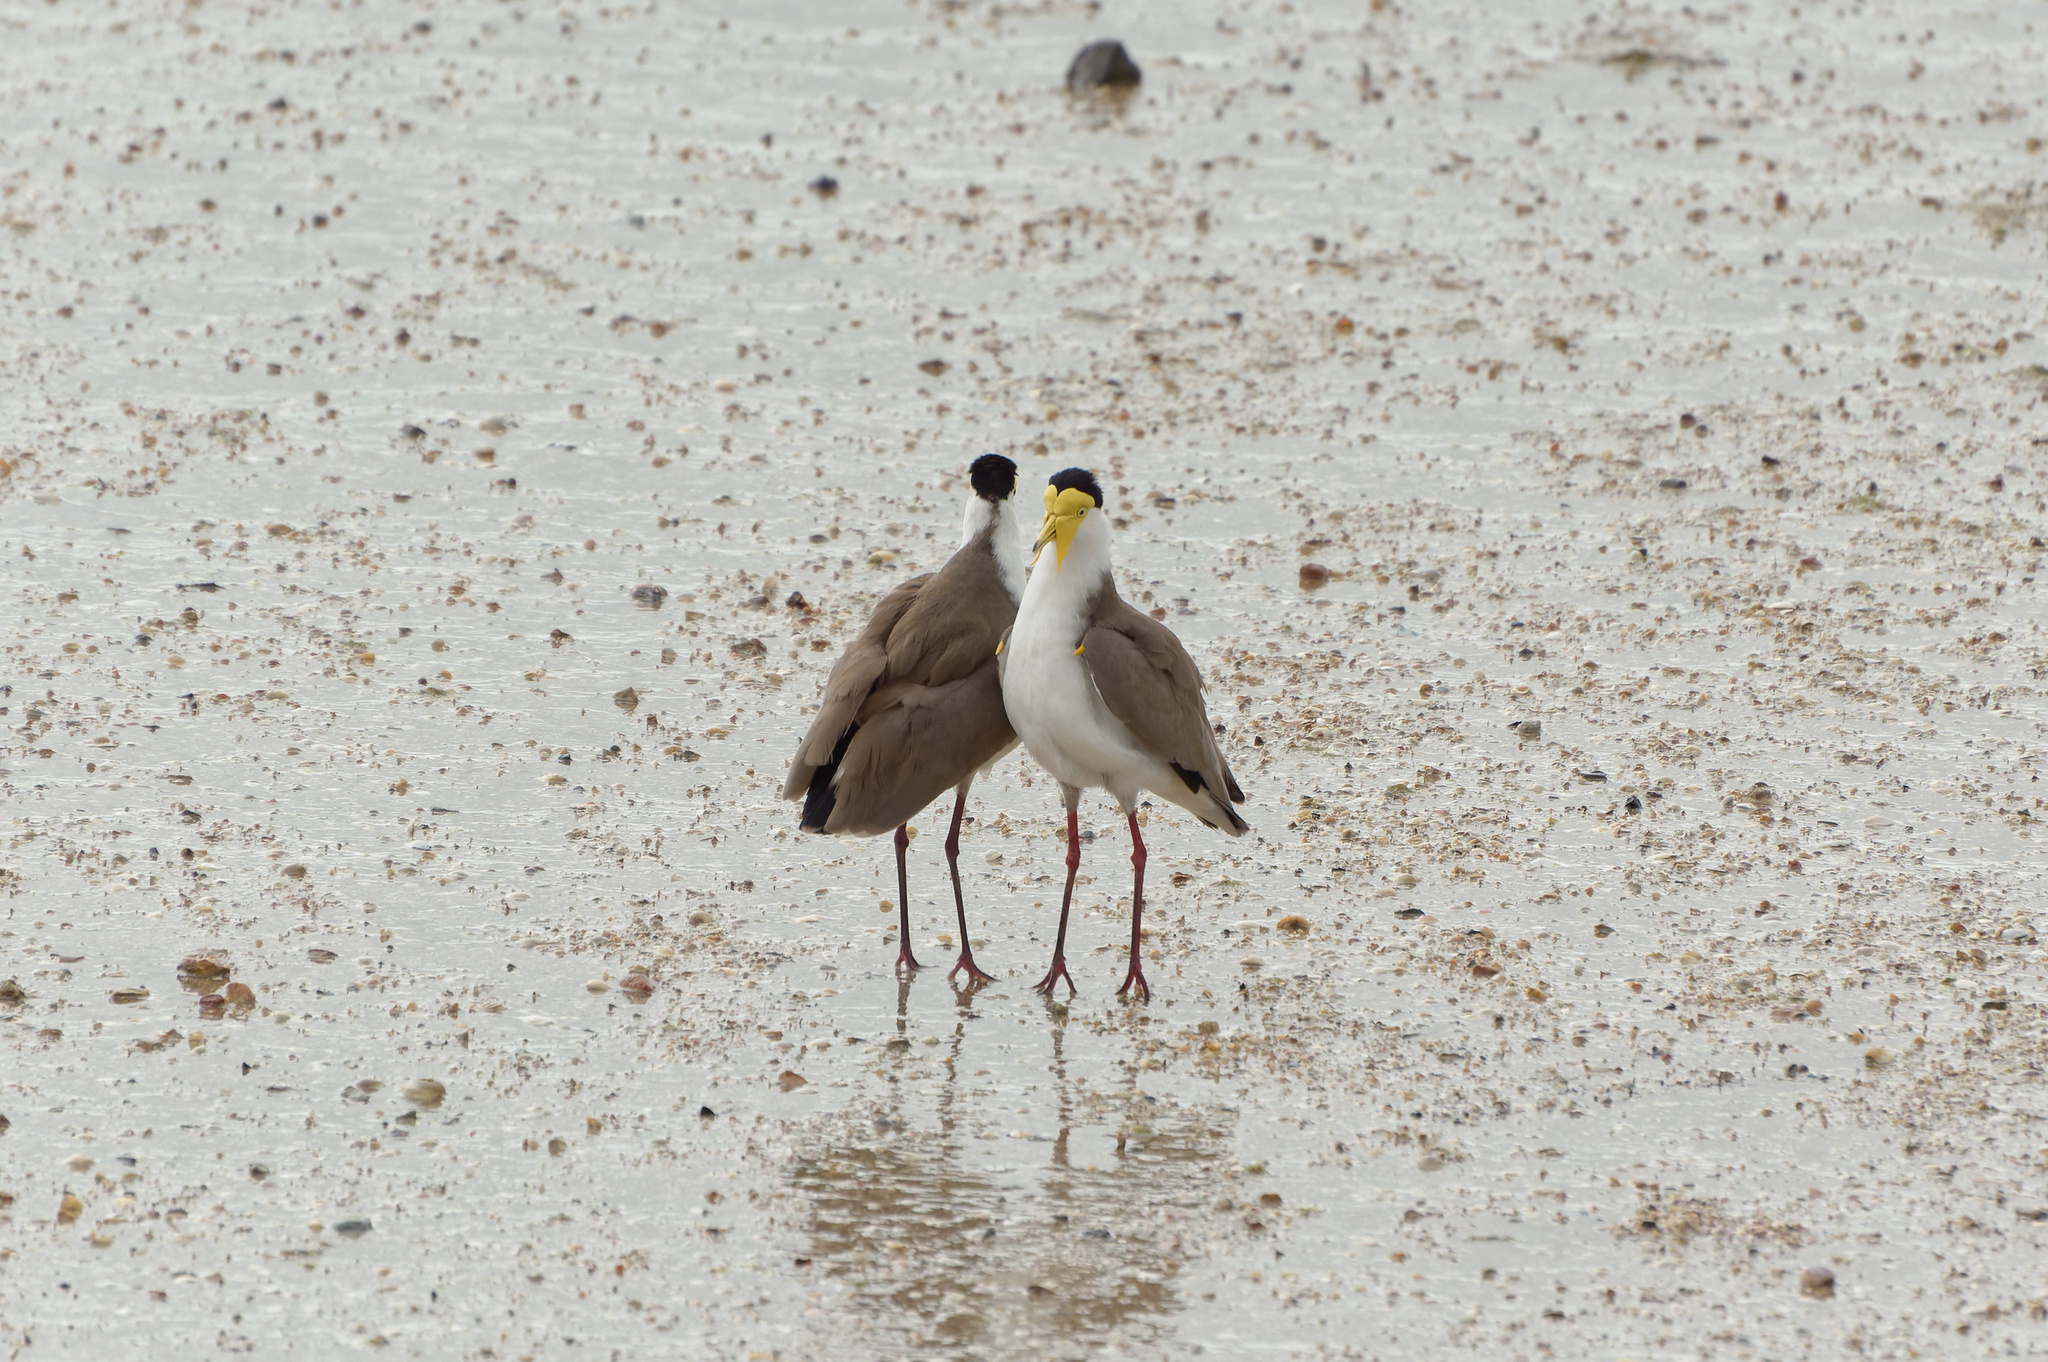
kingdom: Animalia
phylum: Chordata
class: Aves
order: Charadriiformes
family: Charadriidae
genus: Vanellus
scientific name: Vanellus miles
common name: Masked lapwing
